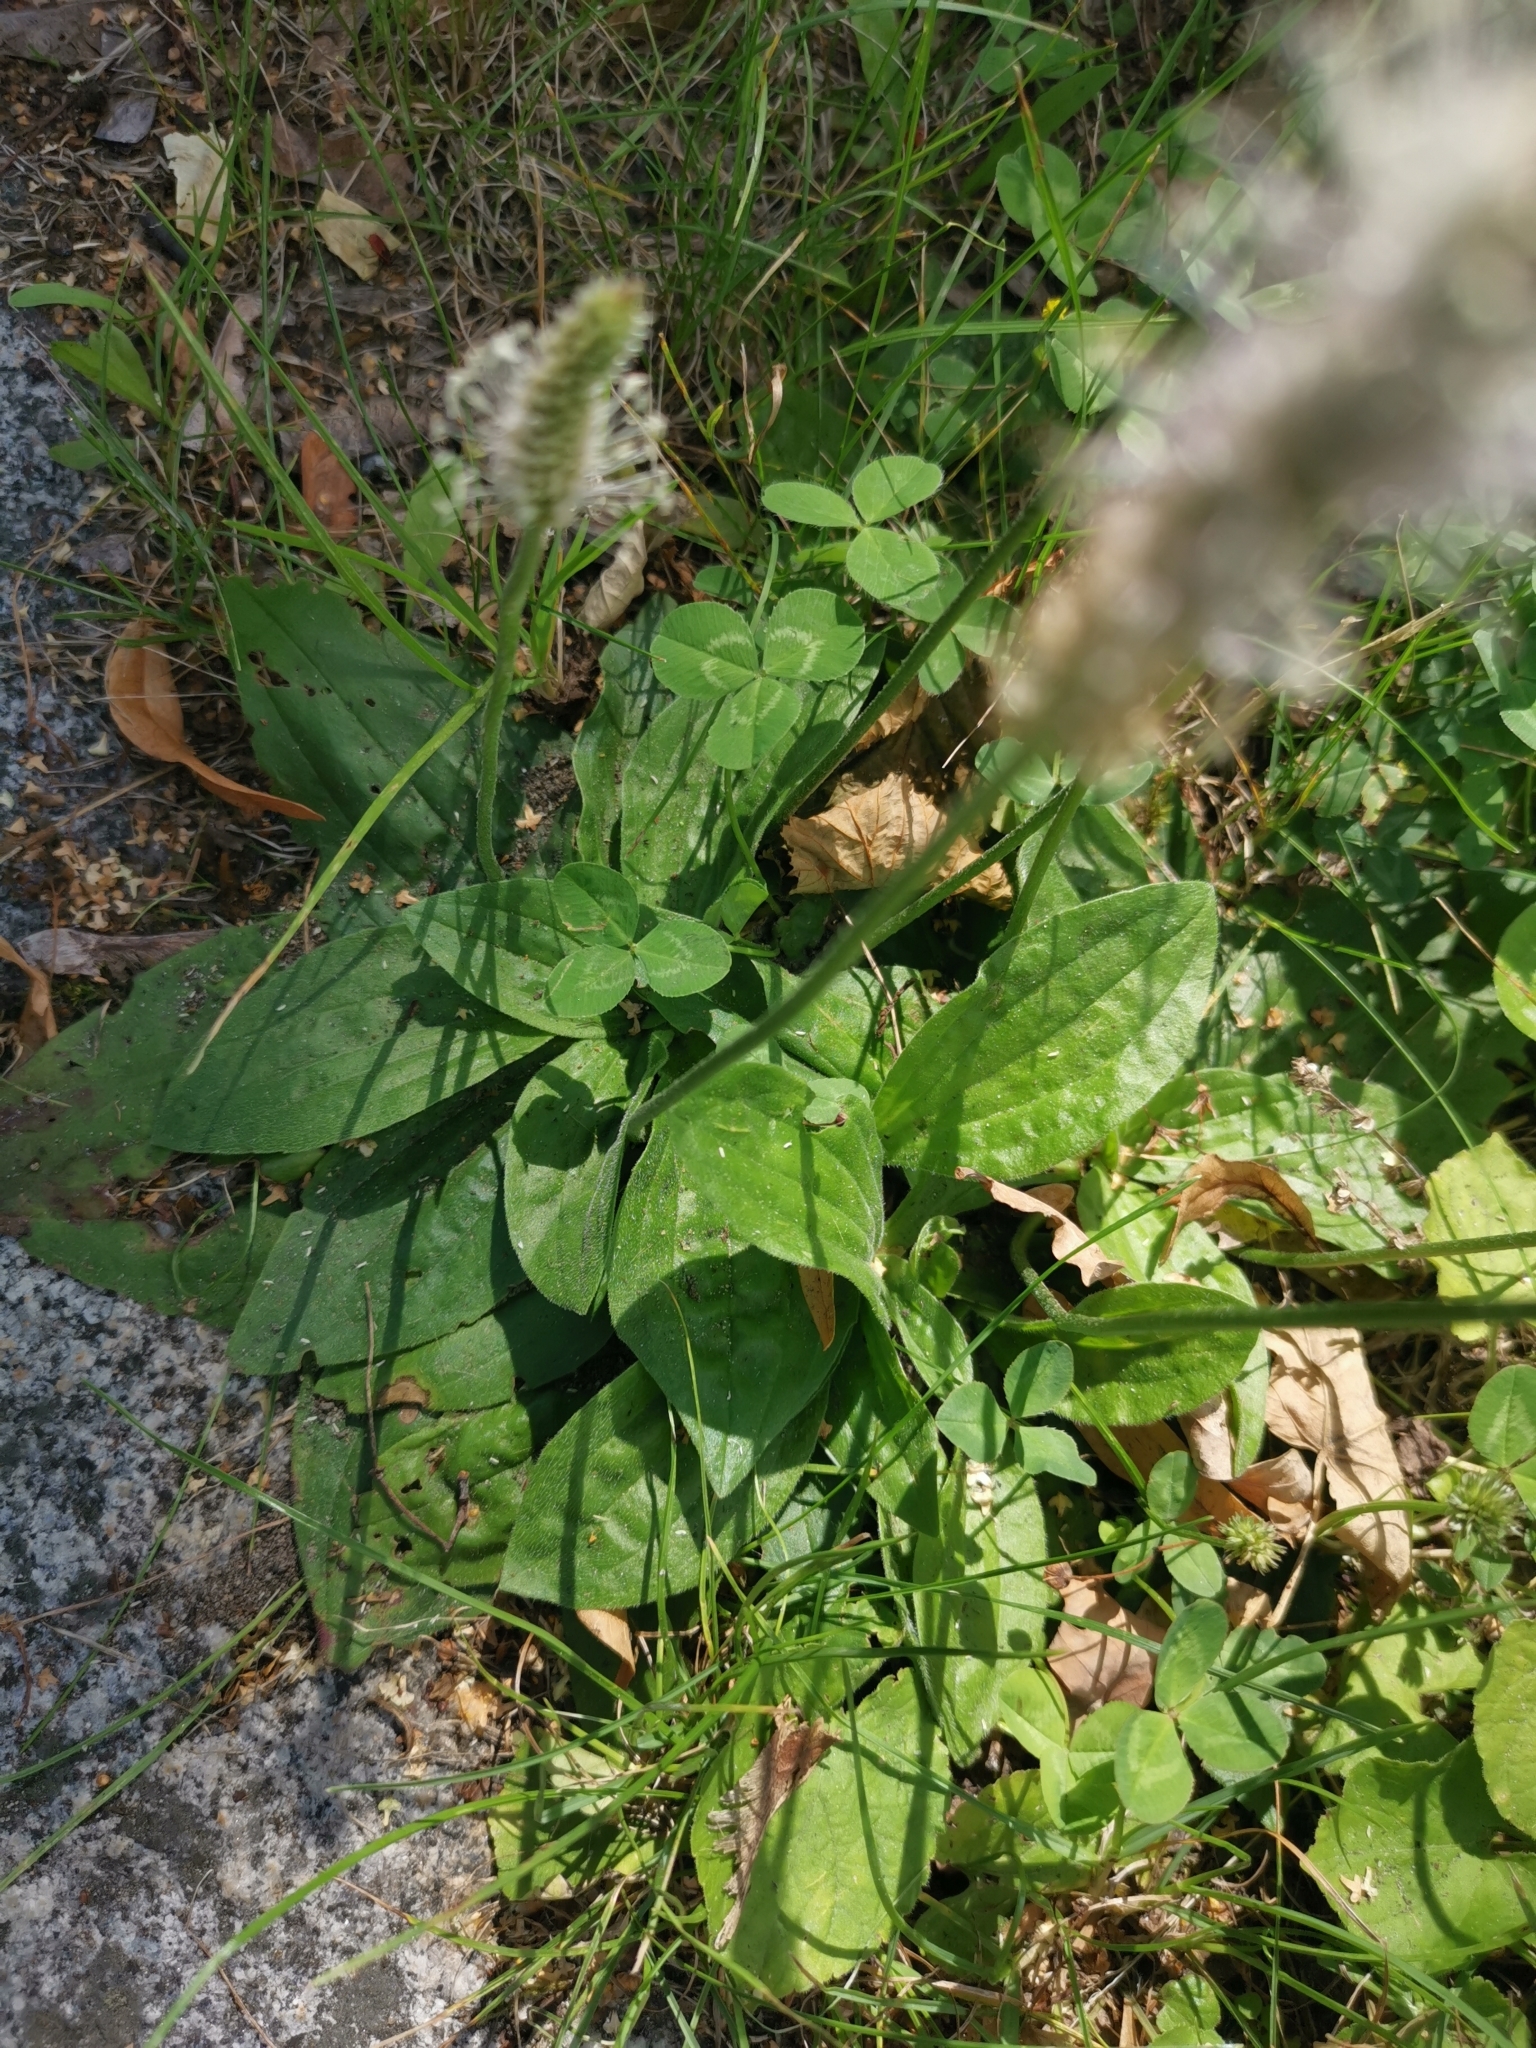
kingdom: Plantae
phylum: Tracheophyta
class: Magnoliopsida
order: Lamiales
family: Plantaginaceae
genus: Plantago
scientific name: Plantago media
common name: Hoary plantain
